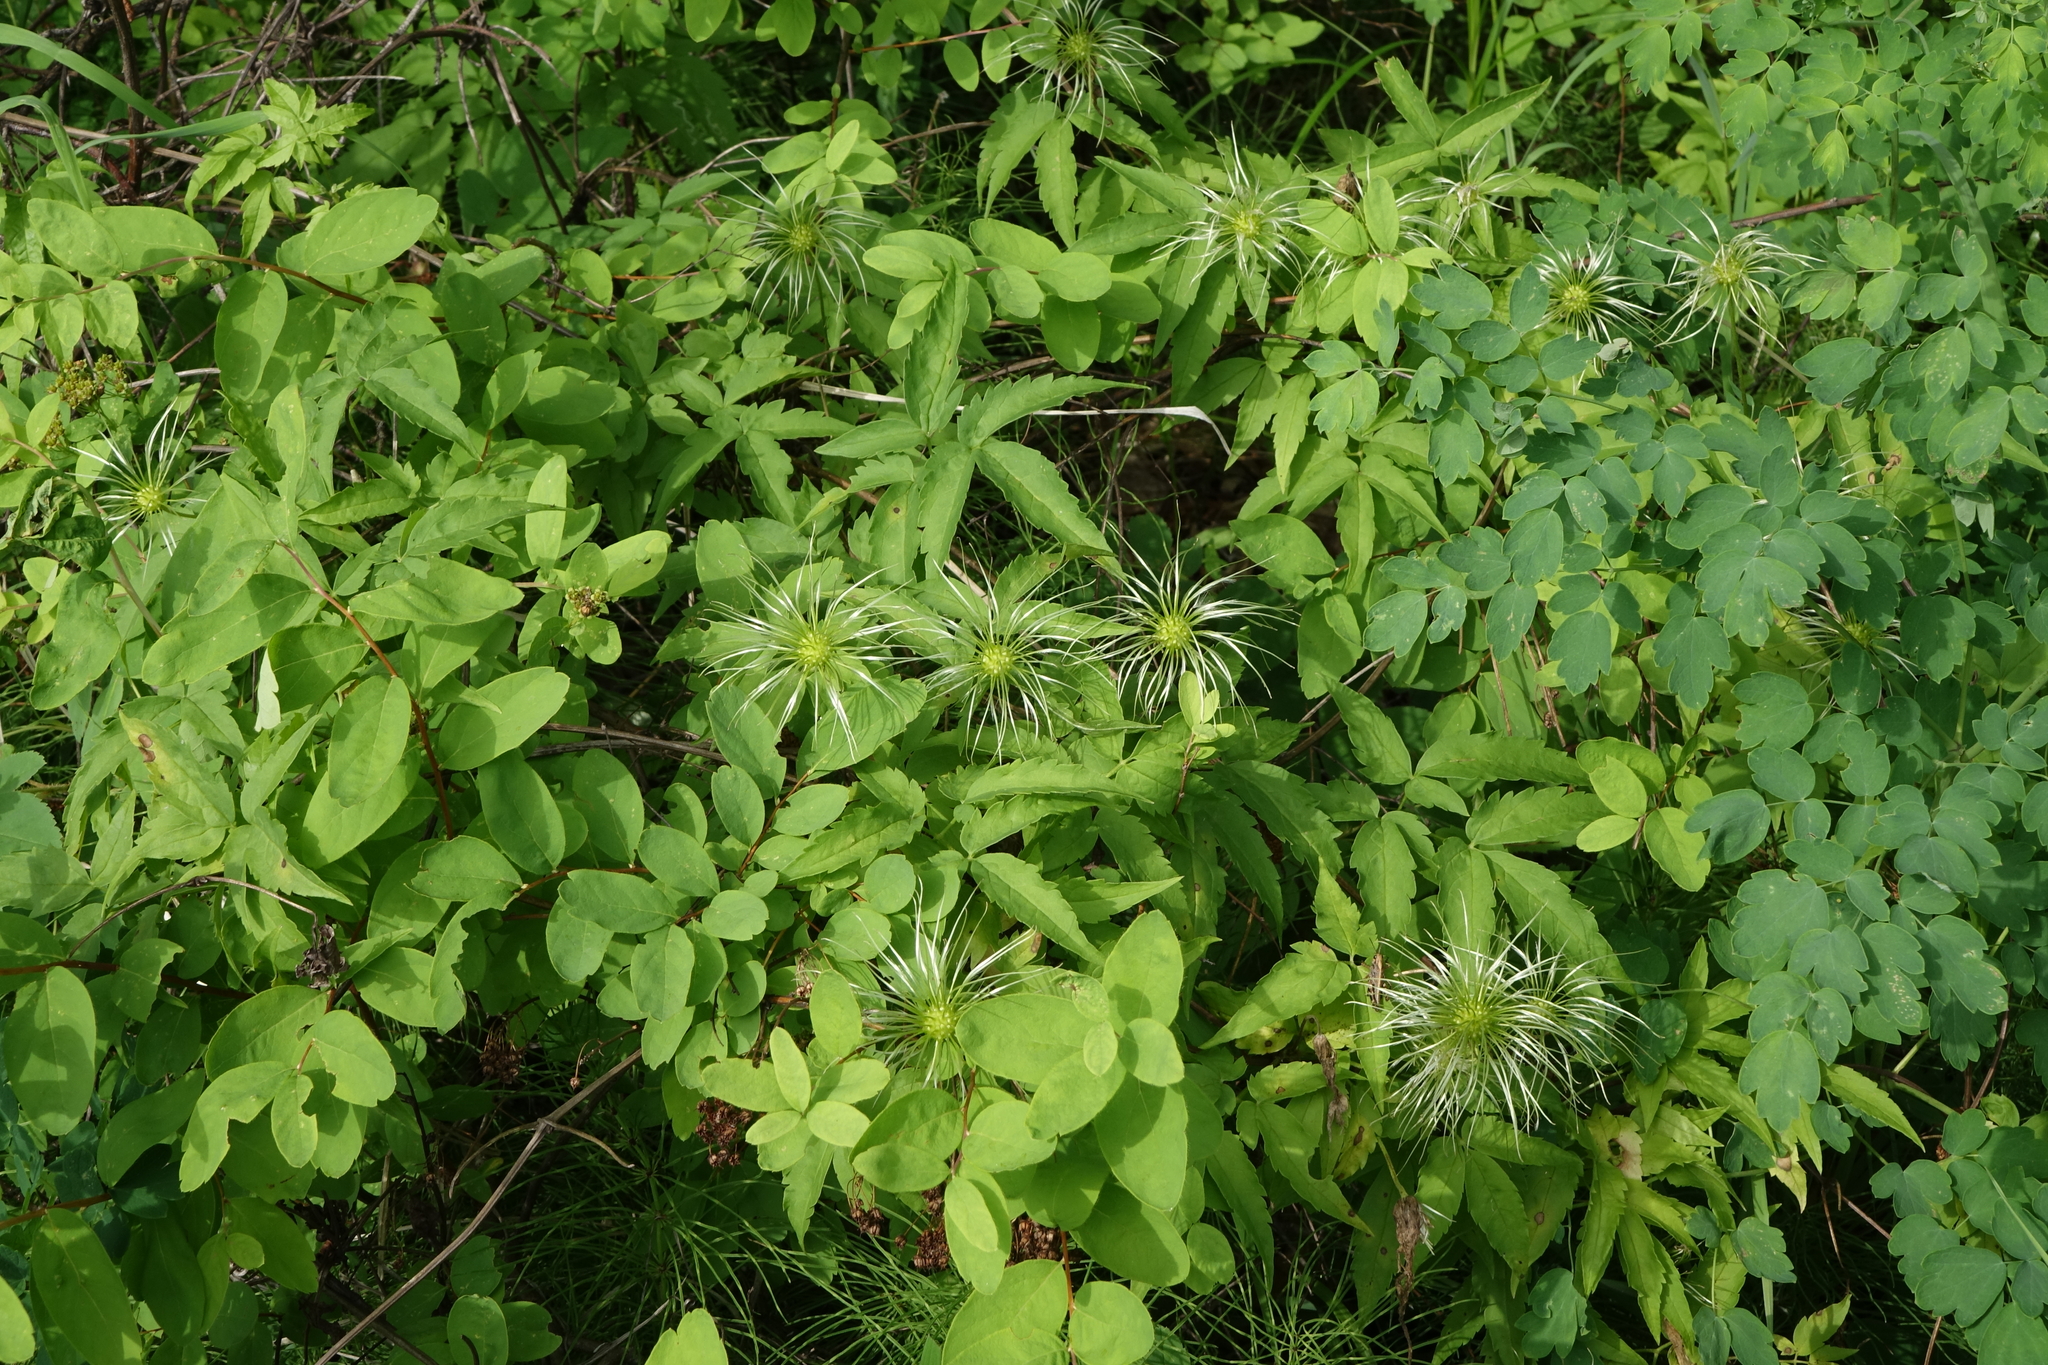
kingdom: Plantae
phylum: Tracheophyta
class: Magnoliopsida
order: Ranunculales
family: Ranunculaceae
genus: Clematis
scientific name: Clematis sibirica
